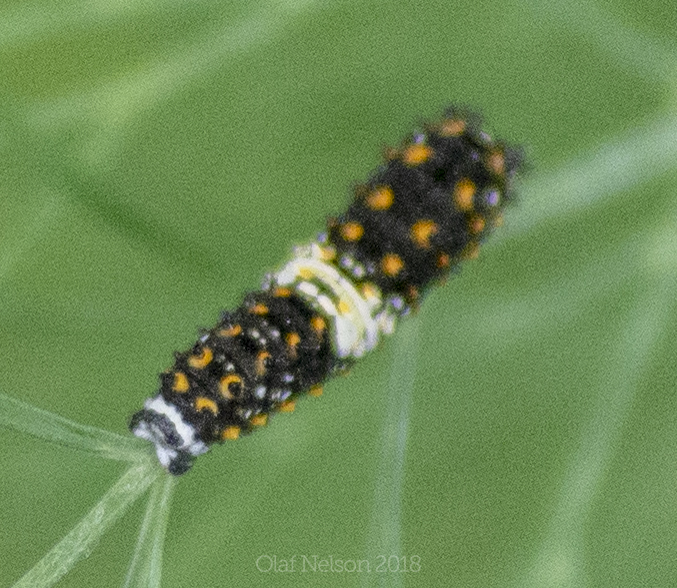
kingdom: Animalia
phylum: Arthropoda
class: Insecta
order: Lepidoptera
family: Papilionidae
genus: Papilio
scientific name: Papilio polyxenes
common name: Black swallowtail
